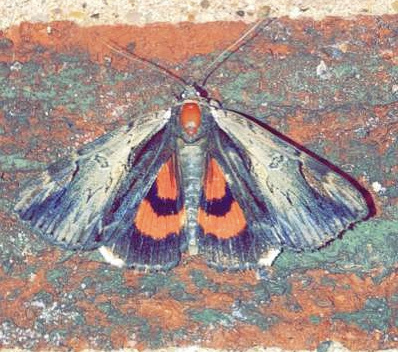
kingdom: Animalia
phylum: Arthropoda
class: Insecta
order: Lepidoptera
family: Erebidae
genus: Catocala
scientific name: Catocala ultronia
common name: Ultronia underwing
